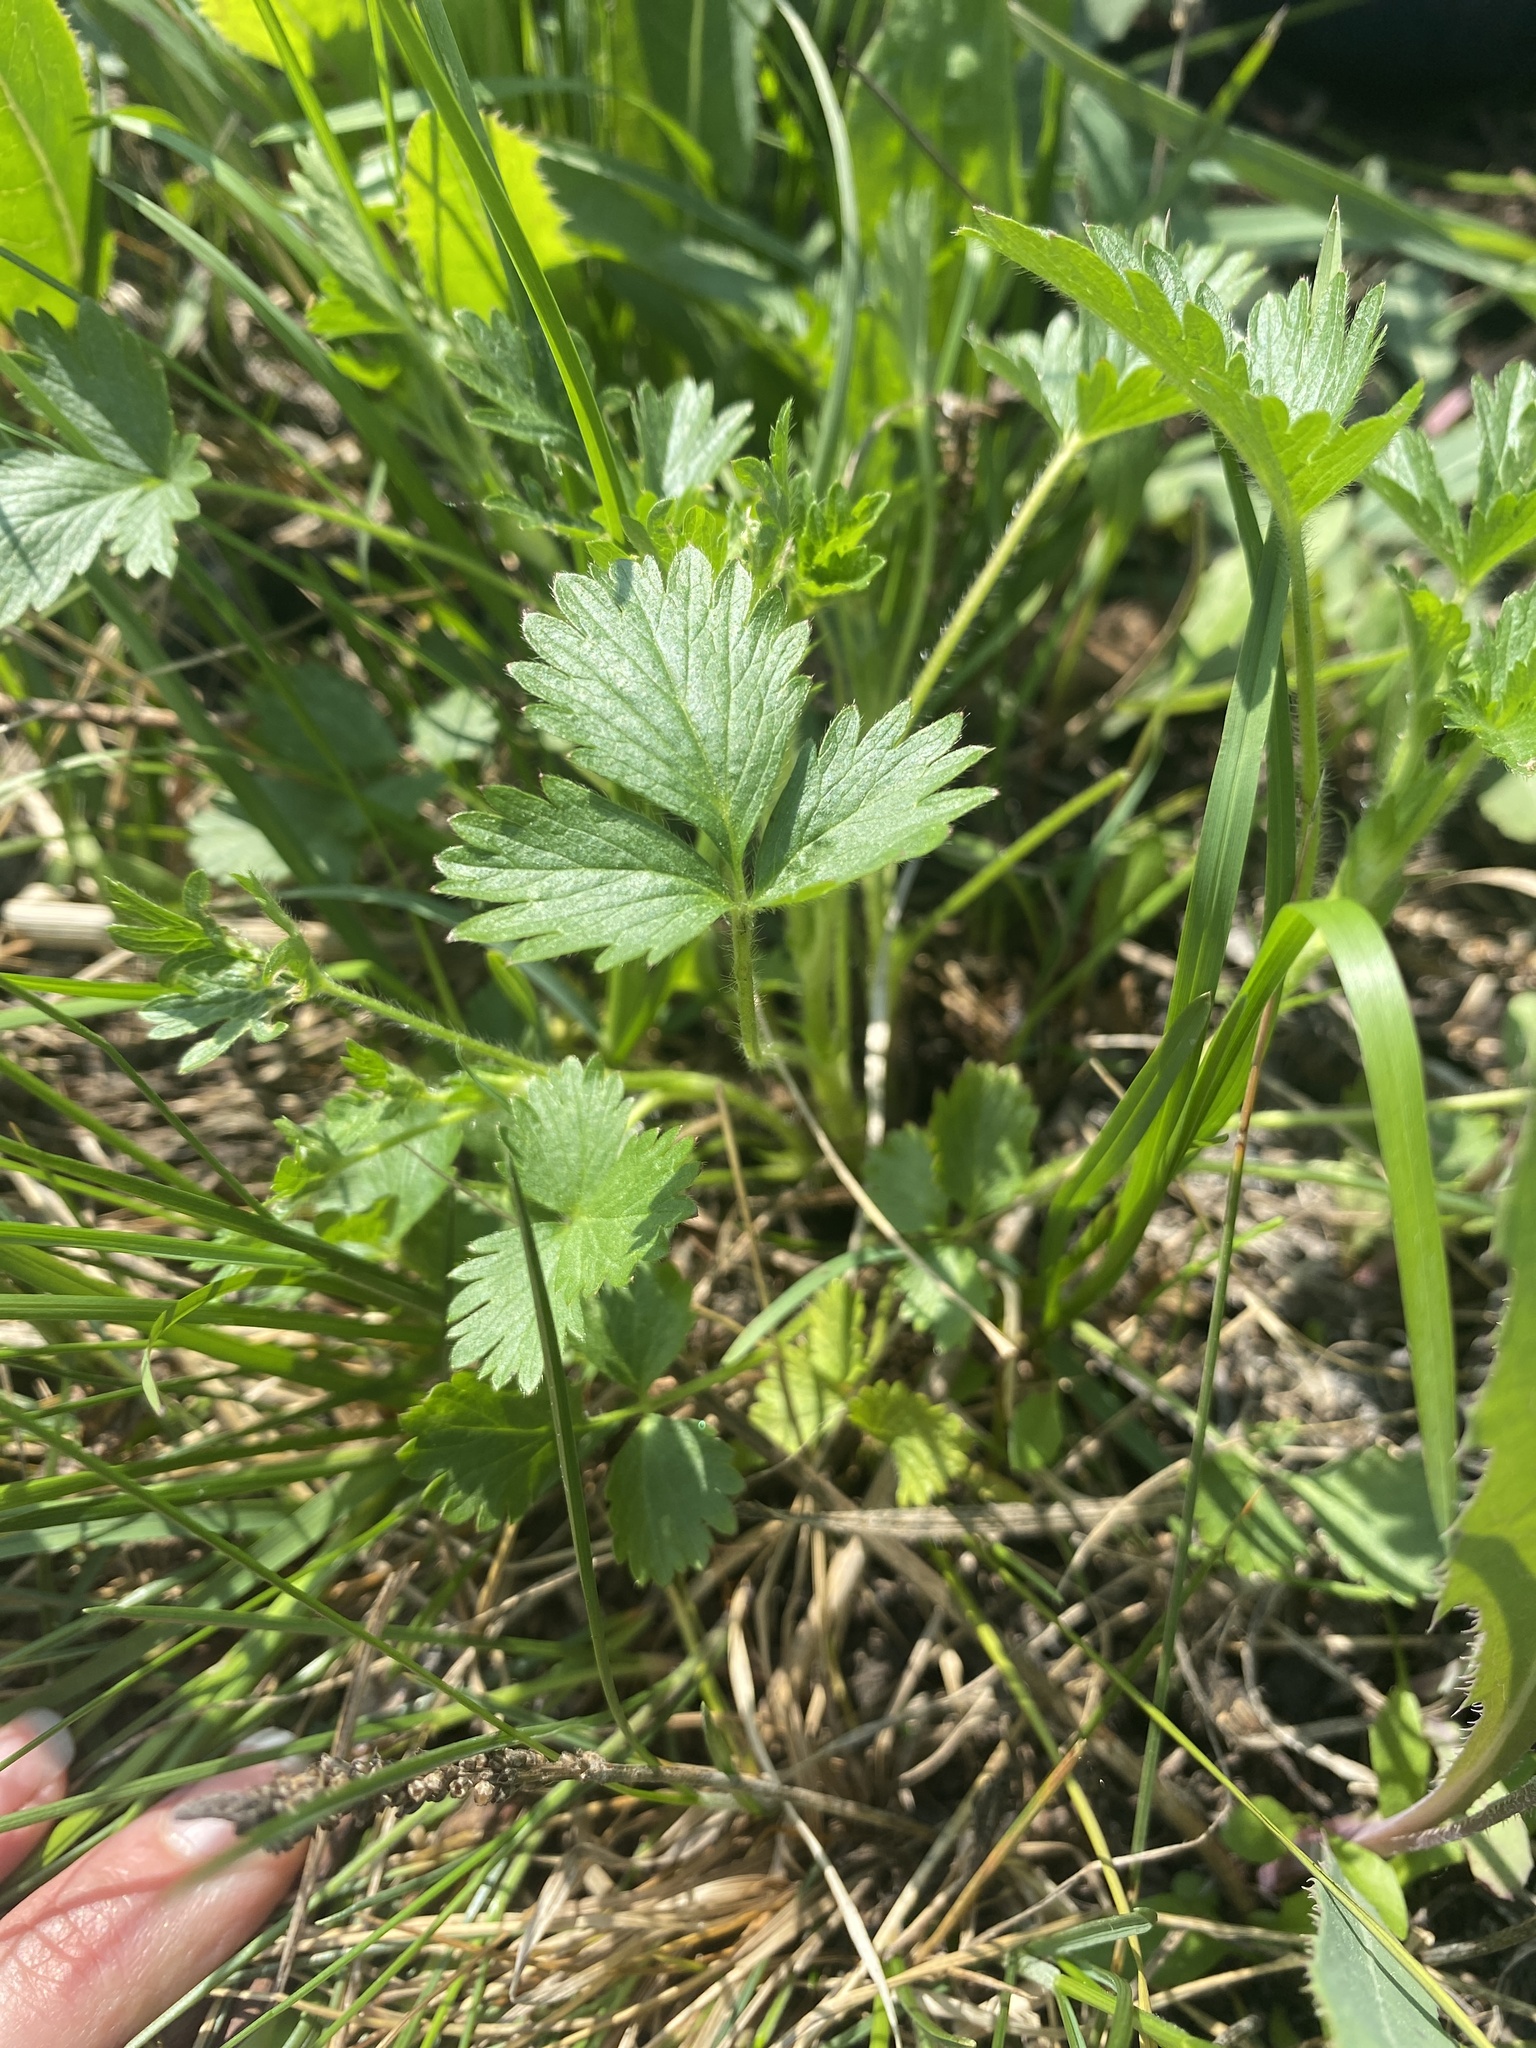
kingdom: Plantae
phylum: Tracheophyta
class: Magnoliopsida
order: Rosales
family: Rosaceae
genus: Potentilla
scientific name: Potentilla norvegica
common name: Ternate-leaved cinquefoil
